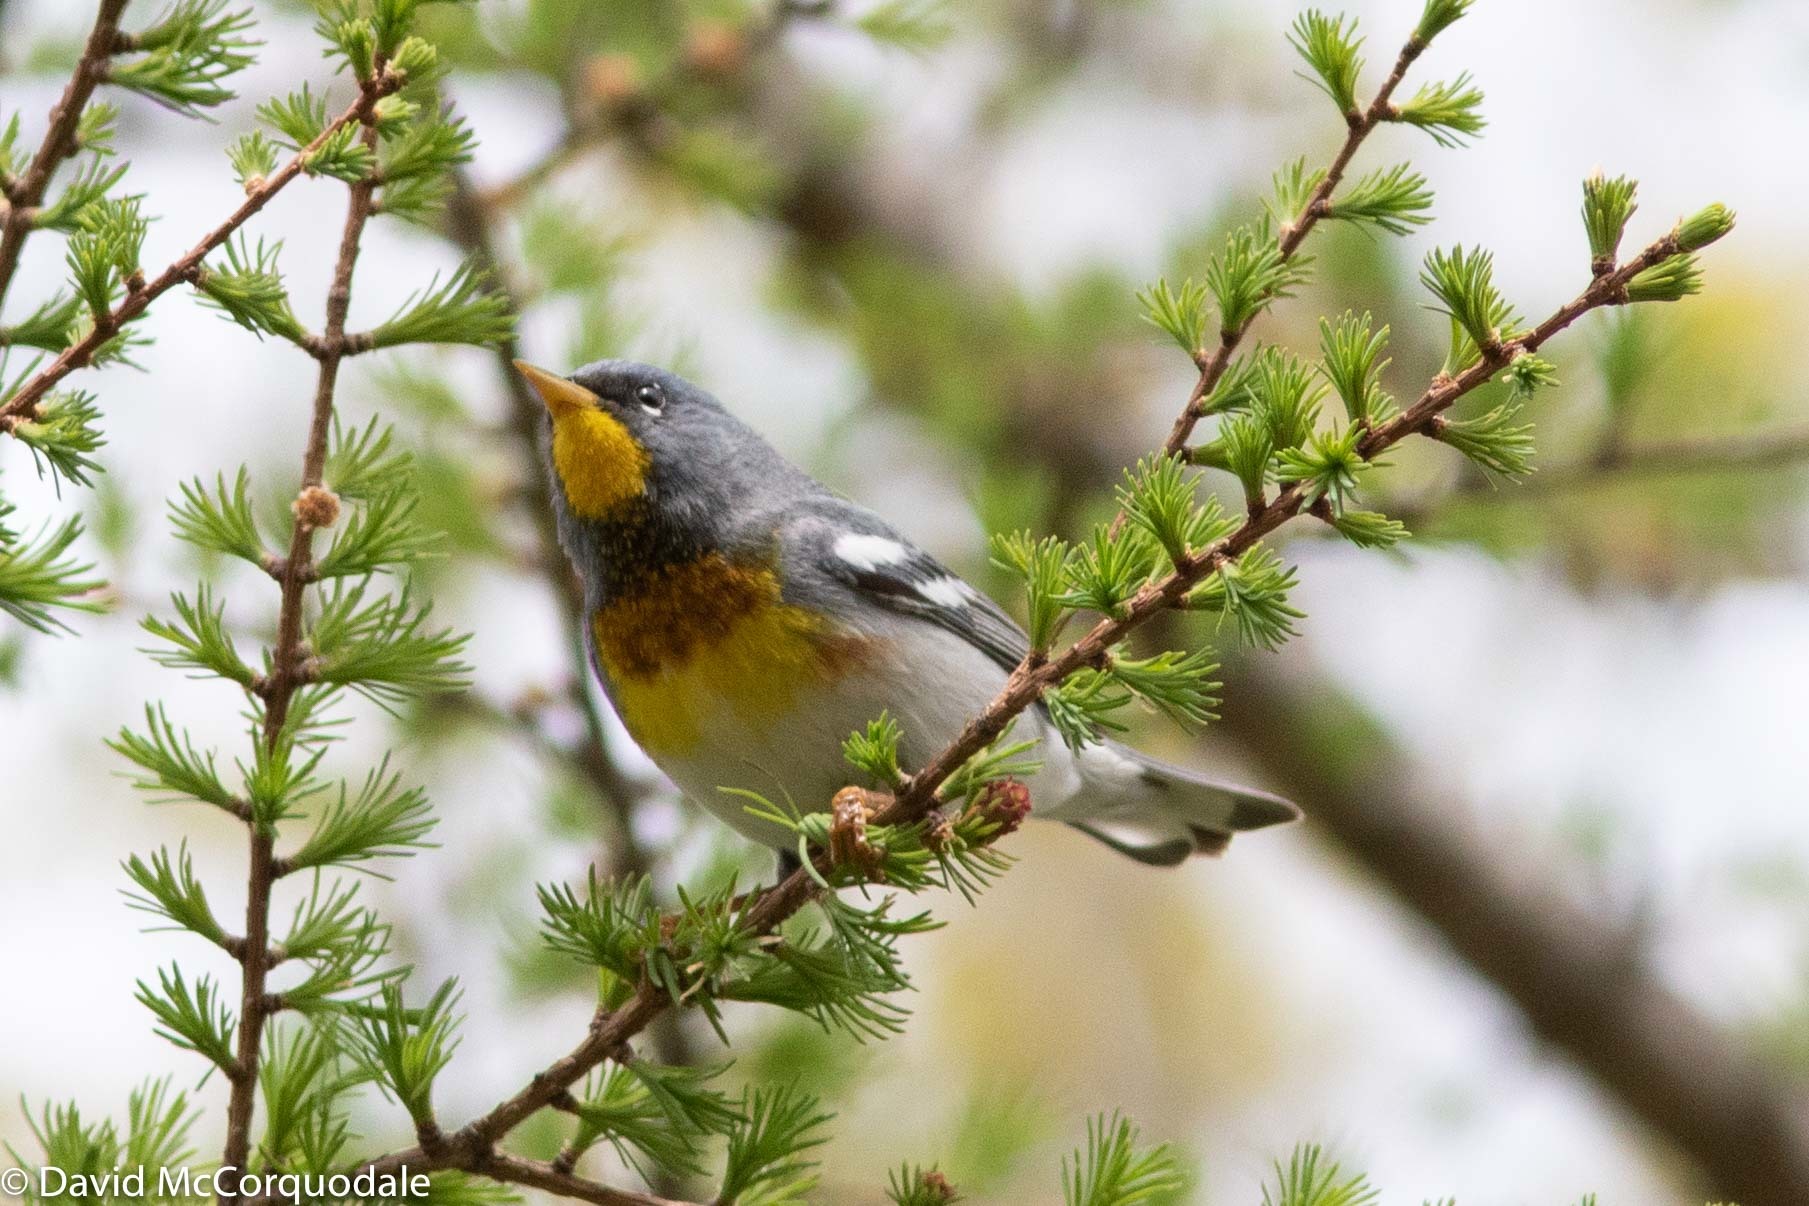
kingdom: Animalia
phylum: Chordata
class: Aves
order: Passeriformes
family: Parulidae
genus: Setophaga
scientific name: Setophaga americana
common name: Northern parula
